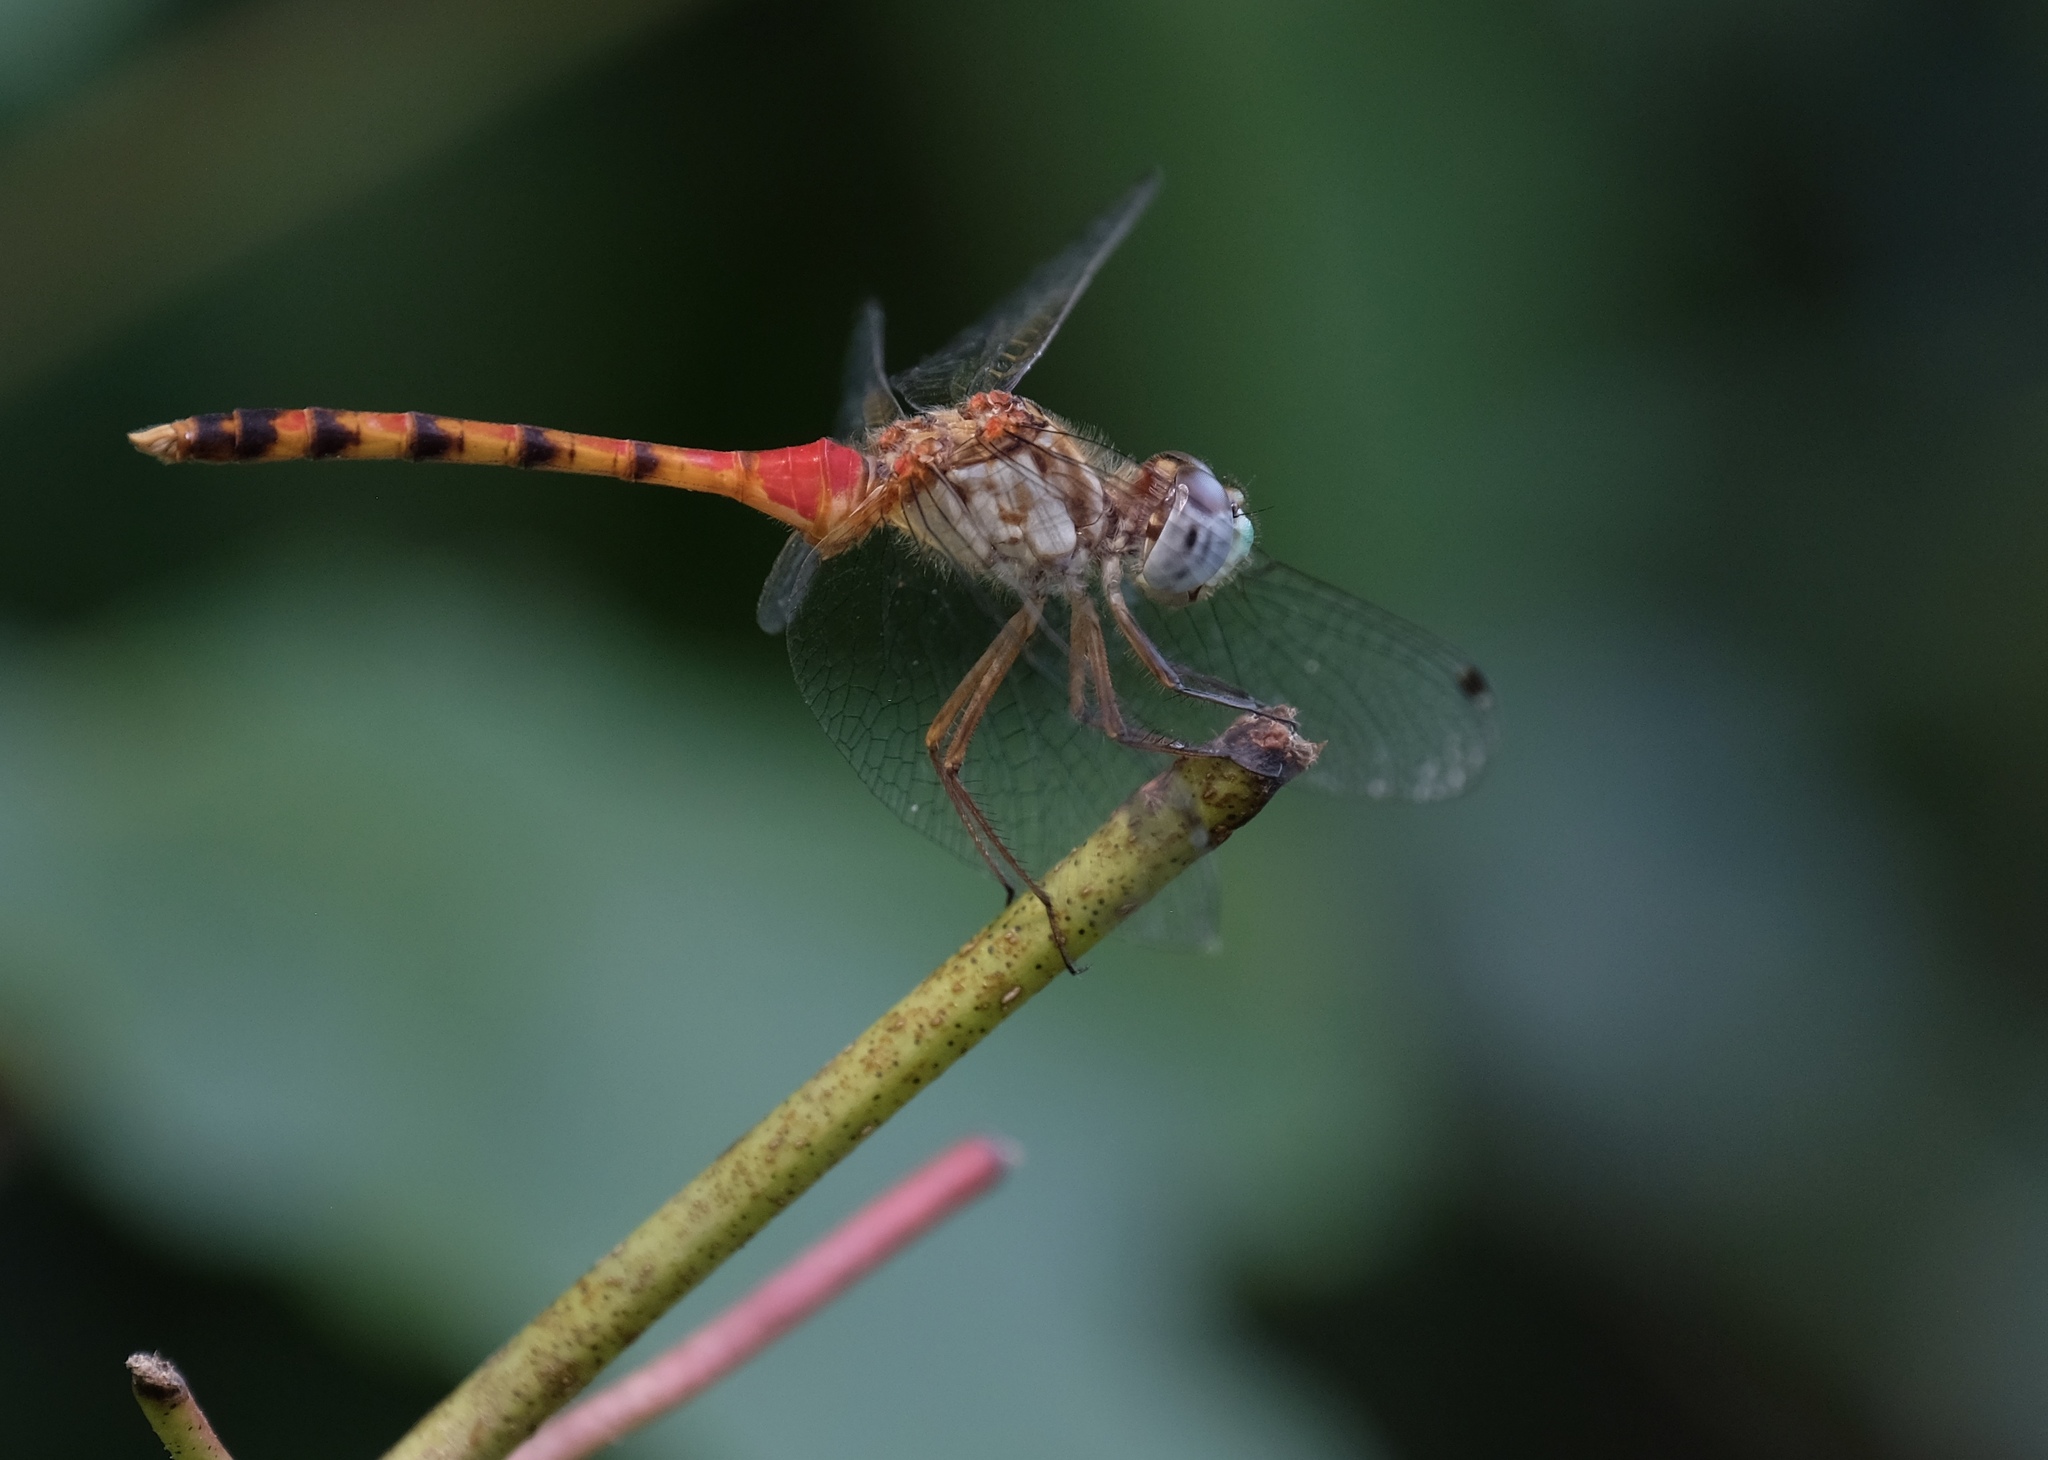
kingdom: Animalia
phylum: Arthropoda
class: Insecta
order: Odonata
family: Libellulidae
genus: Sympetrum
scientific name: Sympetrum ambiguum
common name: Blue-faced meadowhawk
